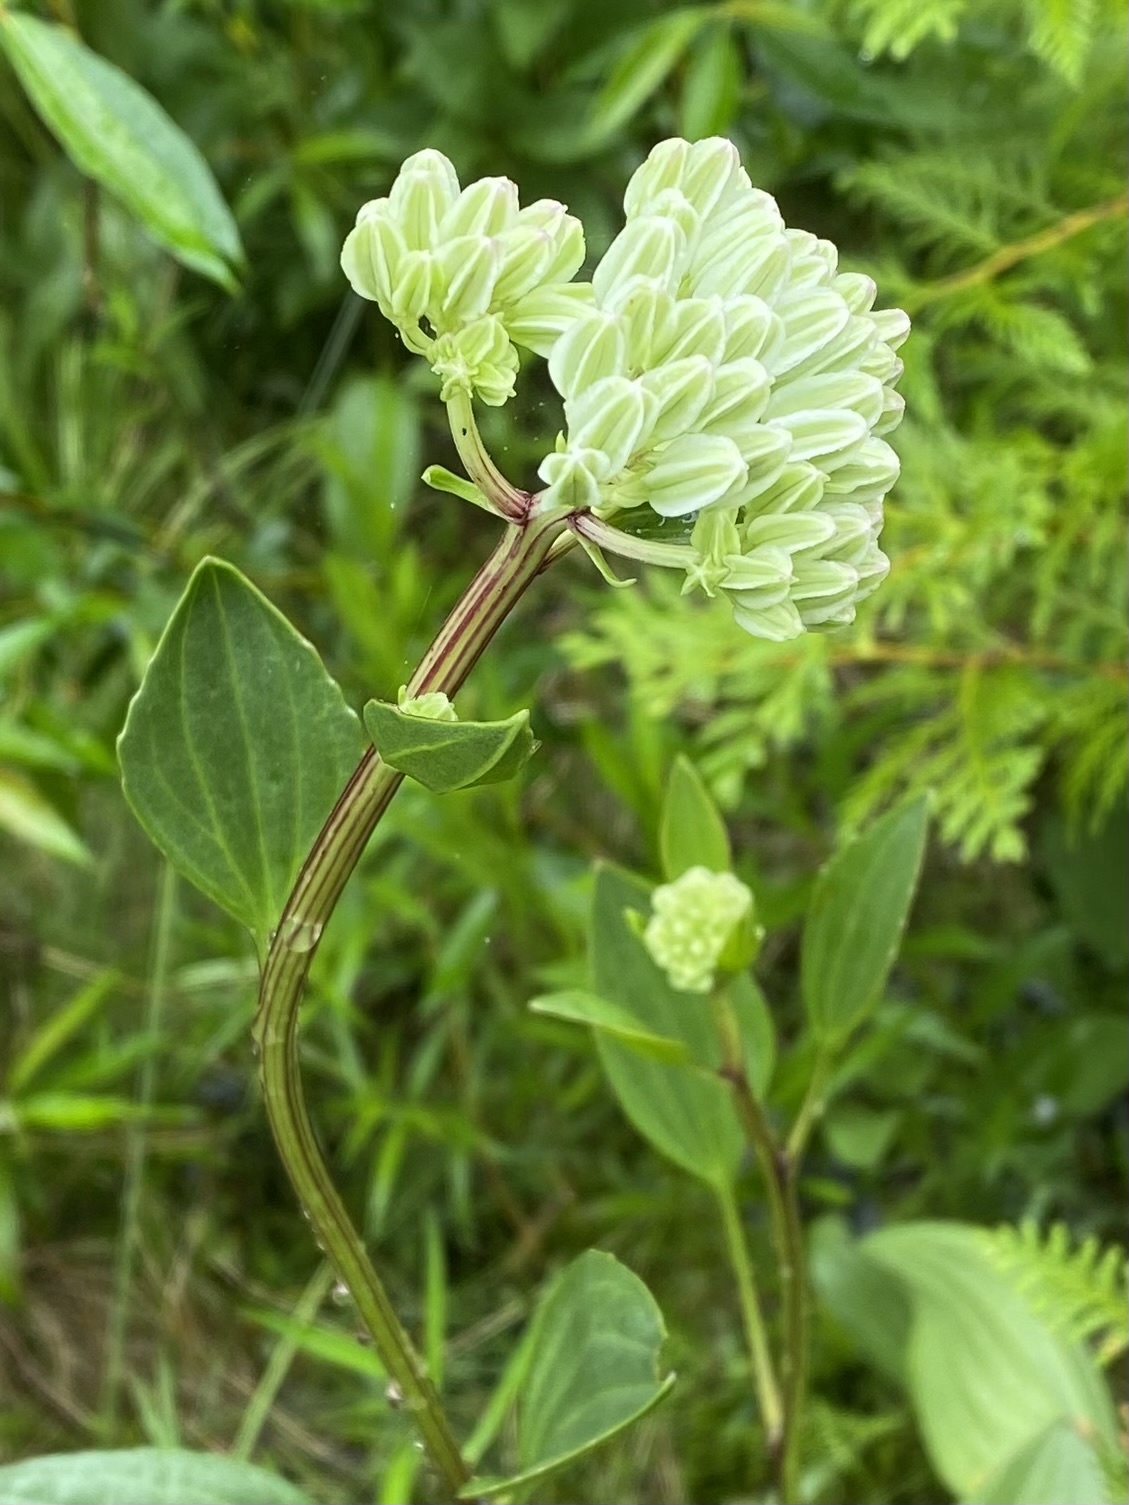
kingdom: Plantae
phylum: Tracheophyta
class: Magnoliopsida
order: Asterales
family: Asteraceae
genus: Arnoglossum
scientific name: Arnoglossum plantagineum
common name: Groove-stemmed indian-plantain
